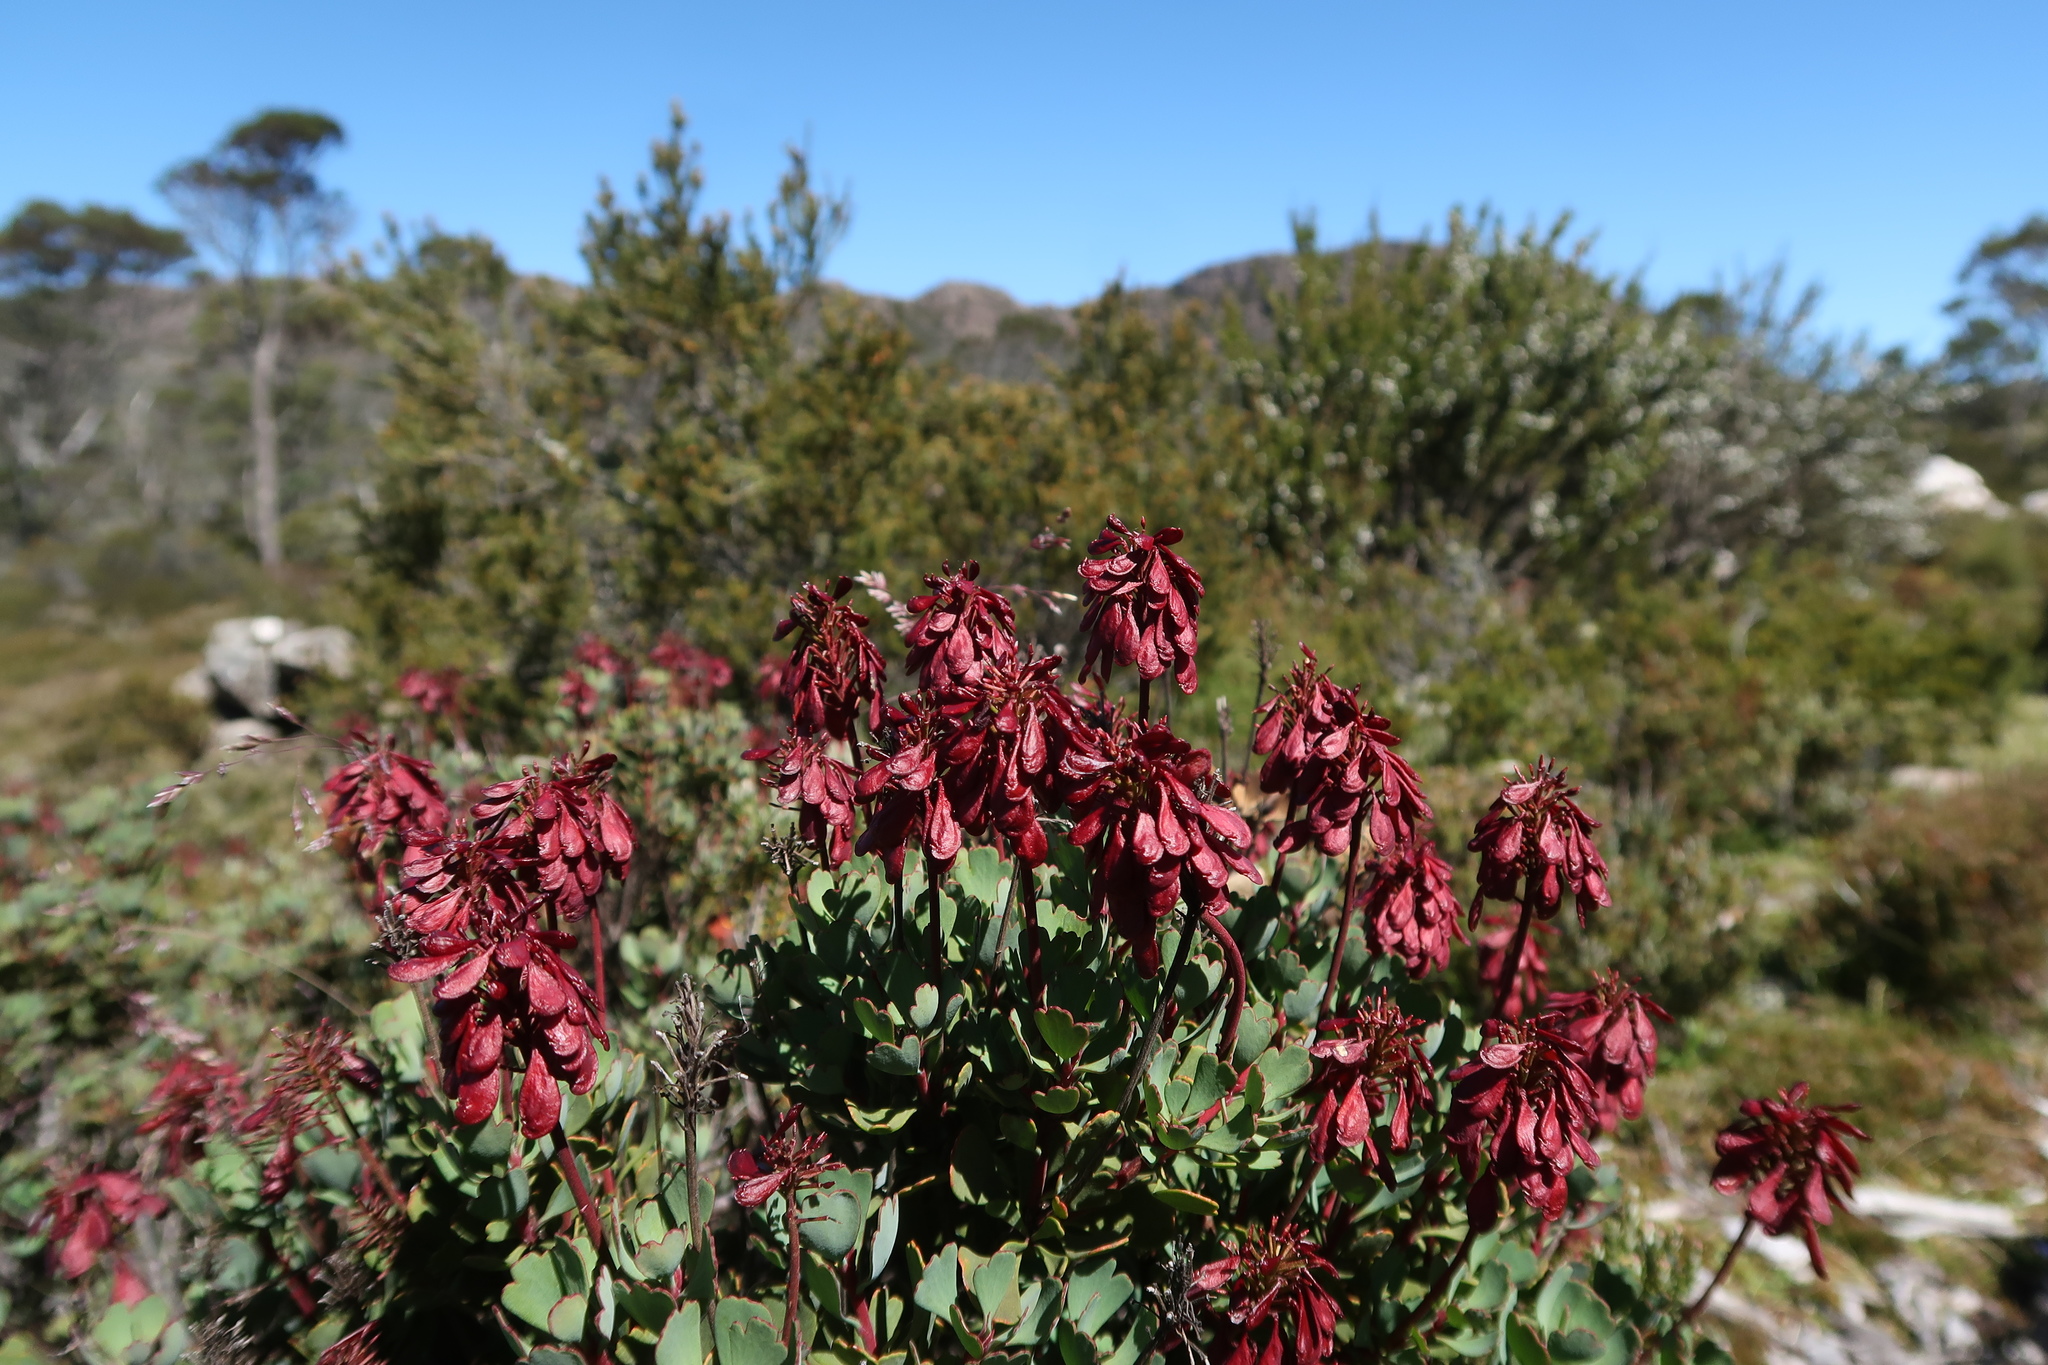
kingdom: Plantae
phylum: Tracheophyta
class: Magnoliopsida
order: Proteales
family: Proteaceae
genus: Bellendena
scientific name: Bellendena montana
